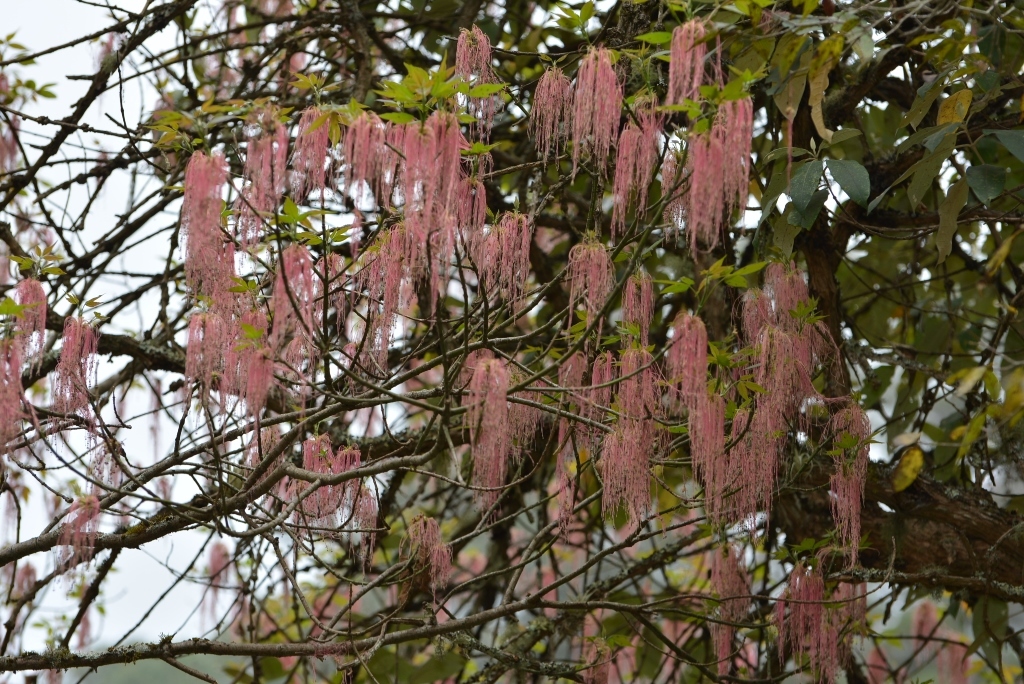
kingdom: Plantae
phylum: Tracheophyta
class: Magnoliopsida
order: Sapindales
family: Sapindaceae
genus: Acer
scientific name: Acer negundo
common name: Ashleaf maple
